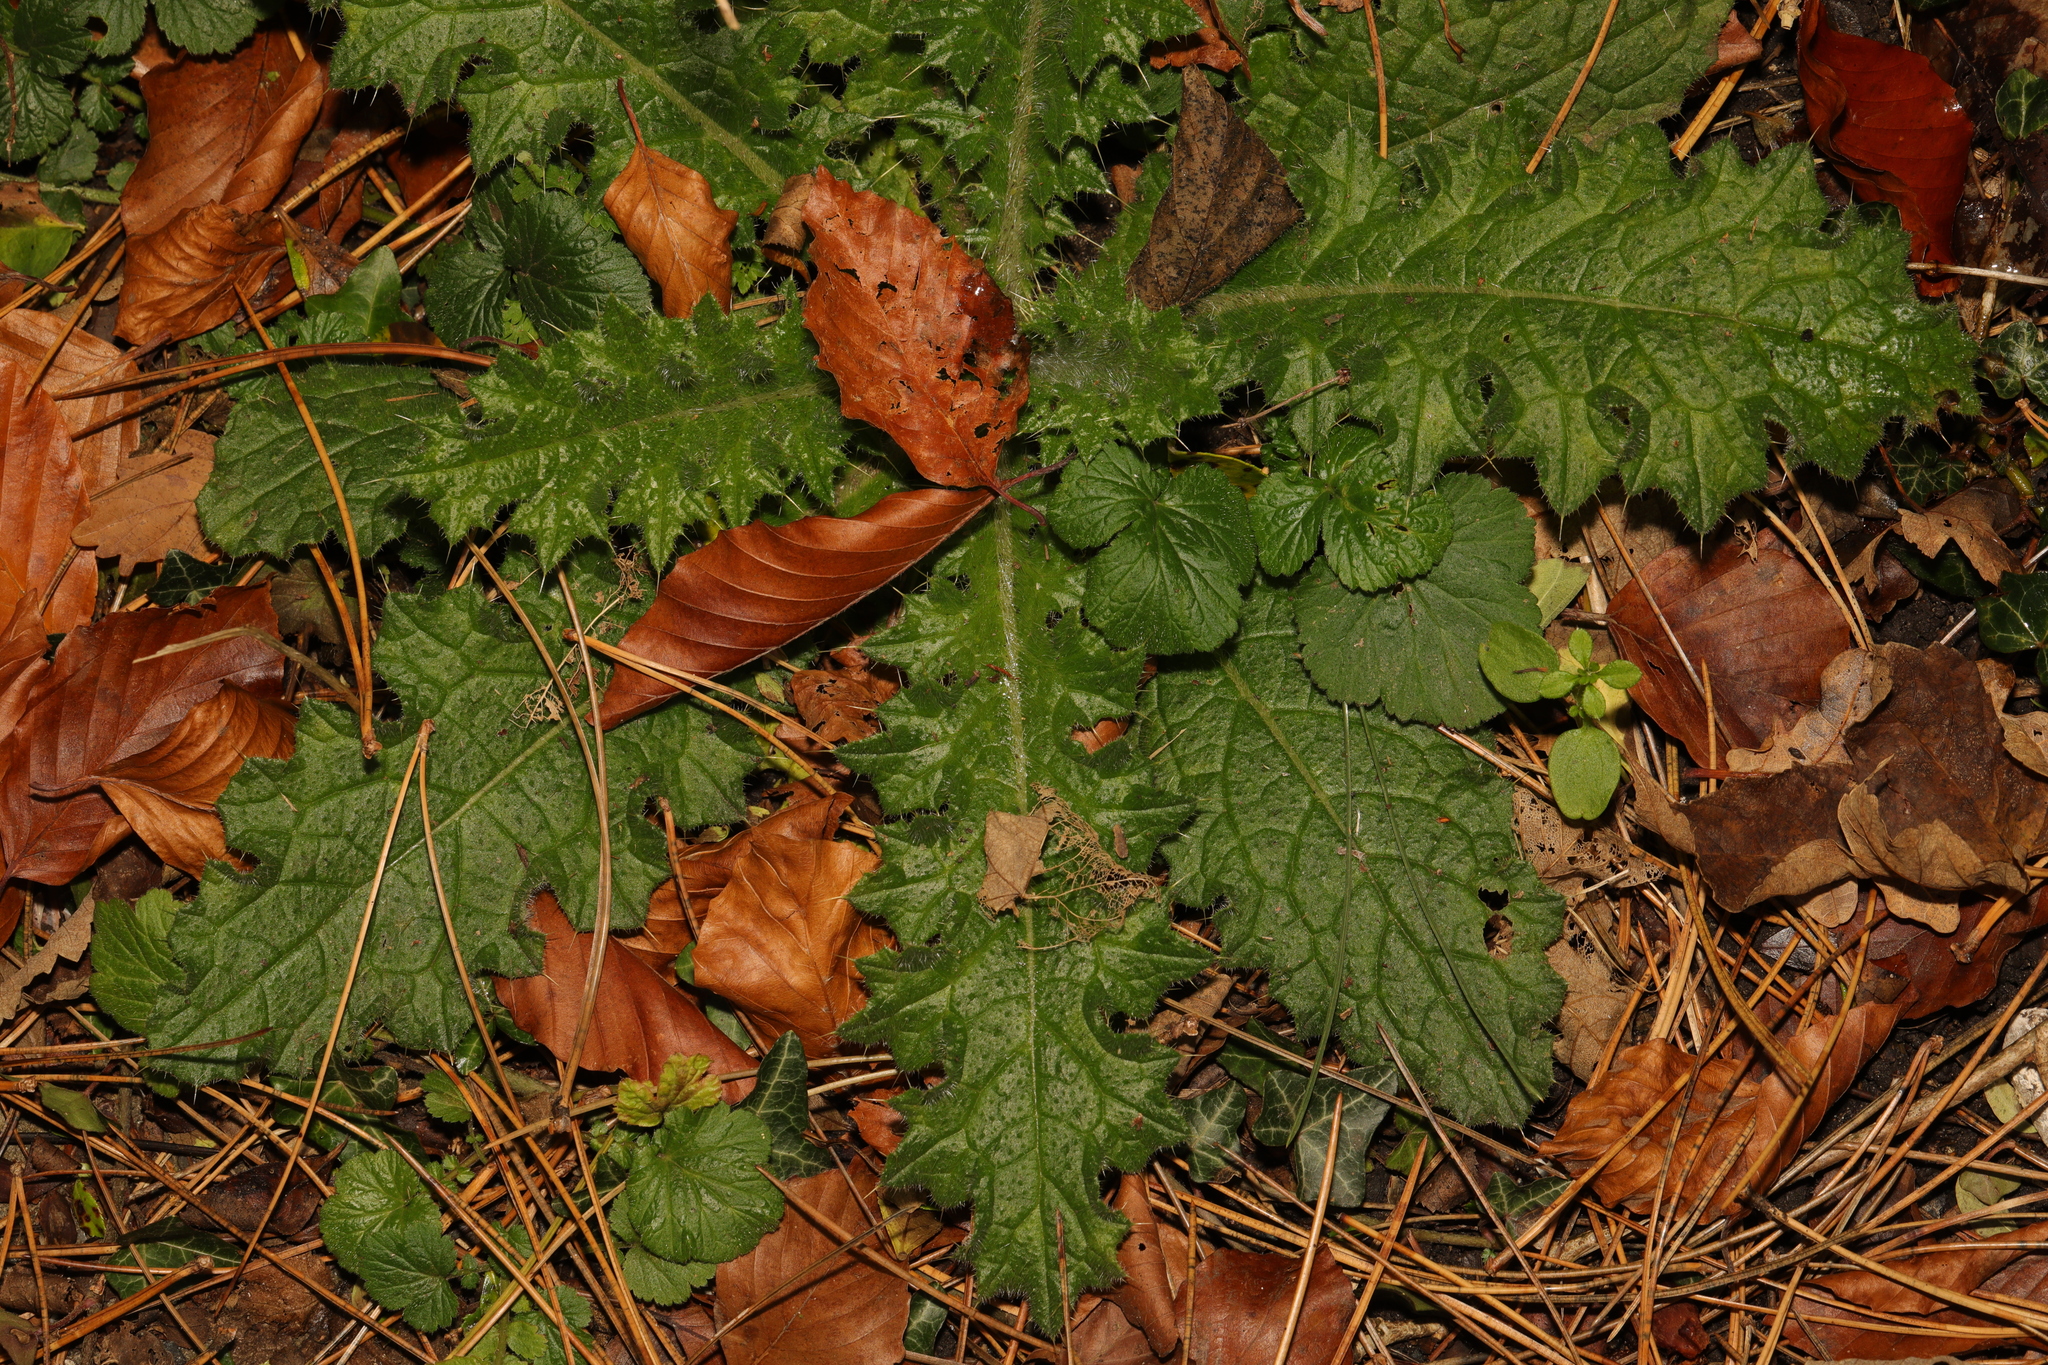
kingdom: Plantae
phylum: Tracheophyta
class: Magnoliopsida
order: Asterales
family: Asteraceae
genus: Cirsium
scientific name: Cirsium vulgare
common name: Bull thistle
